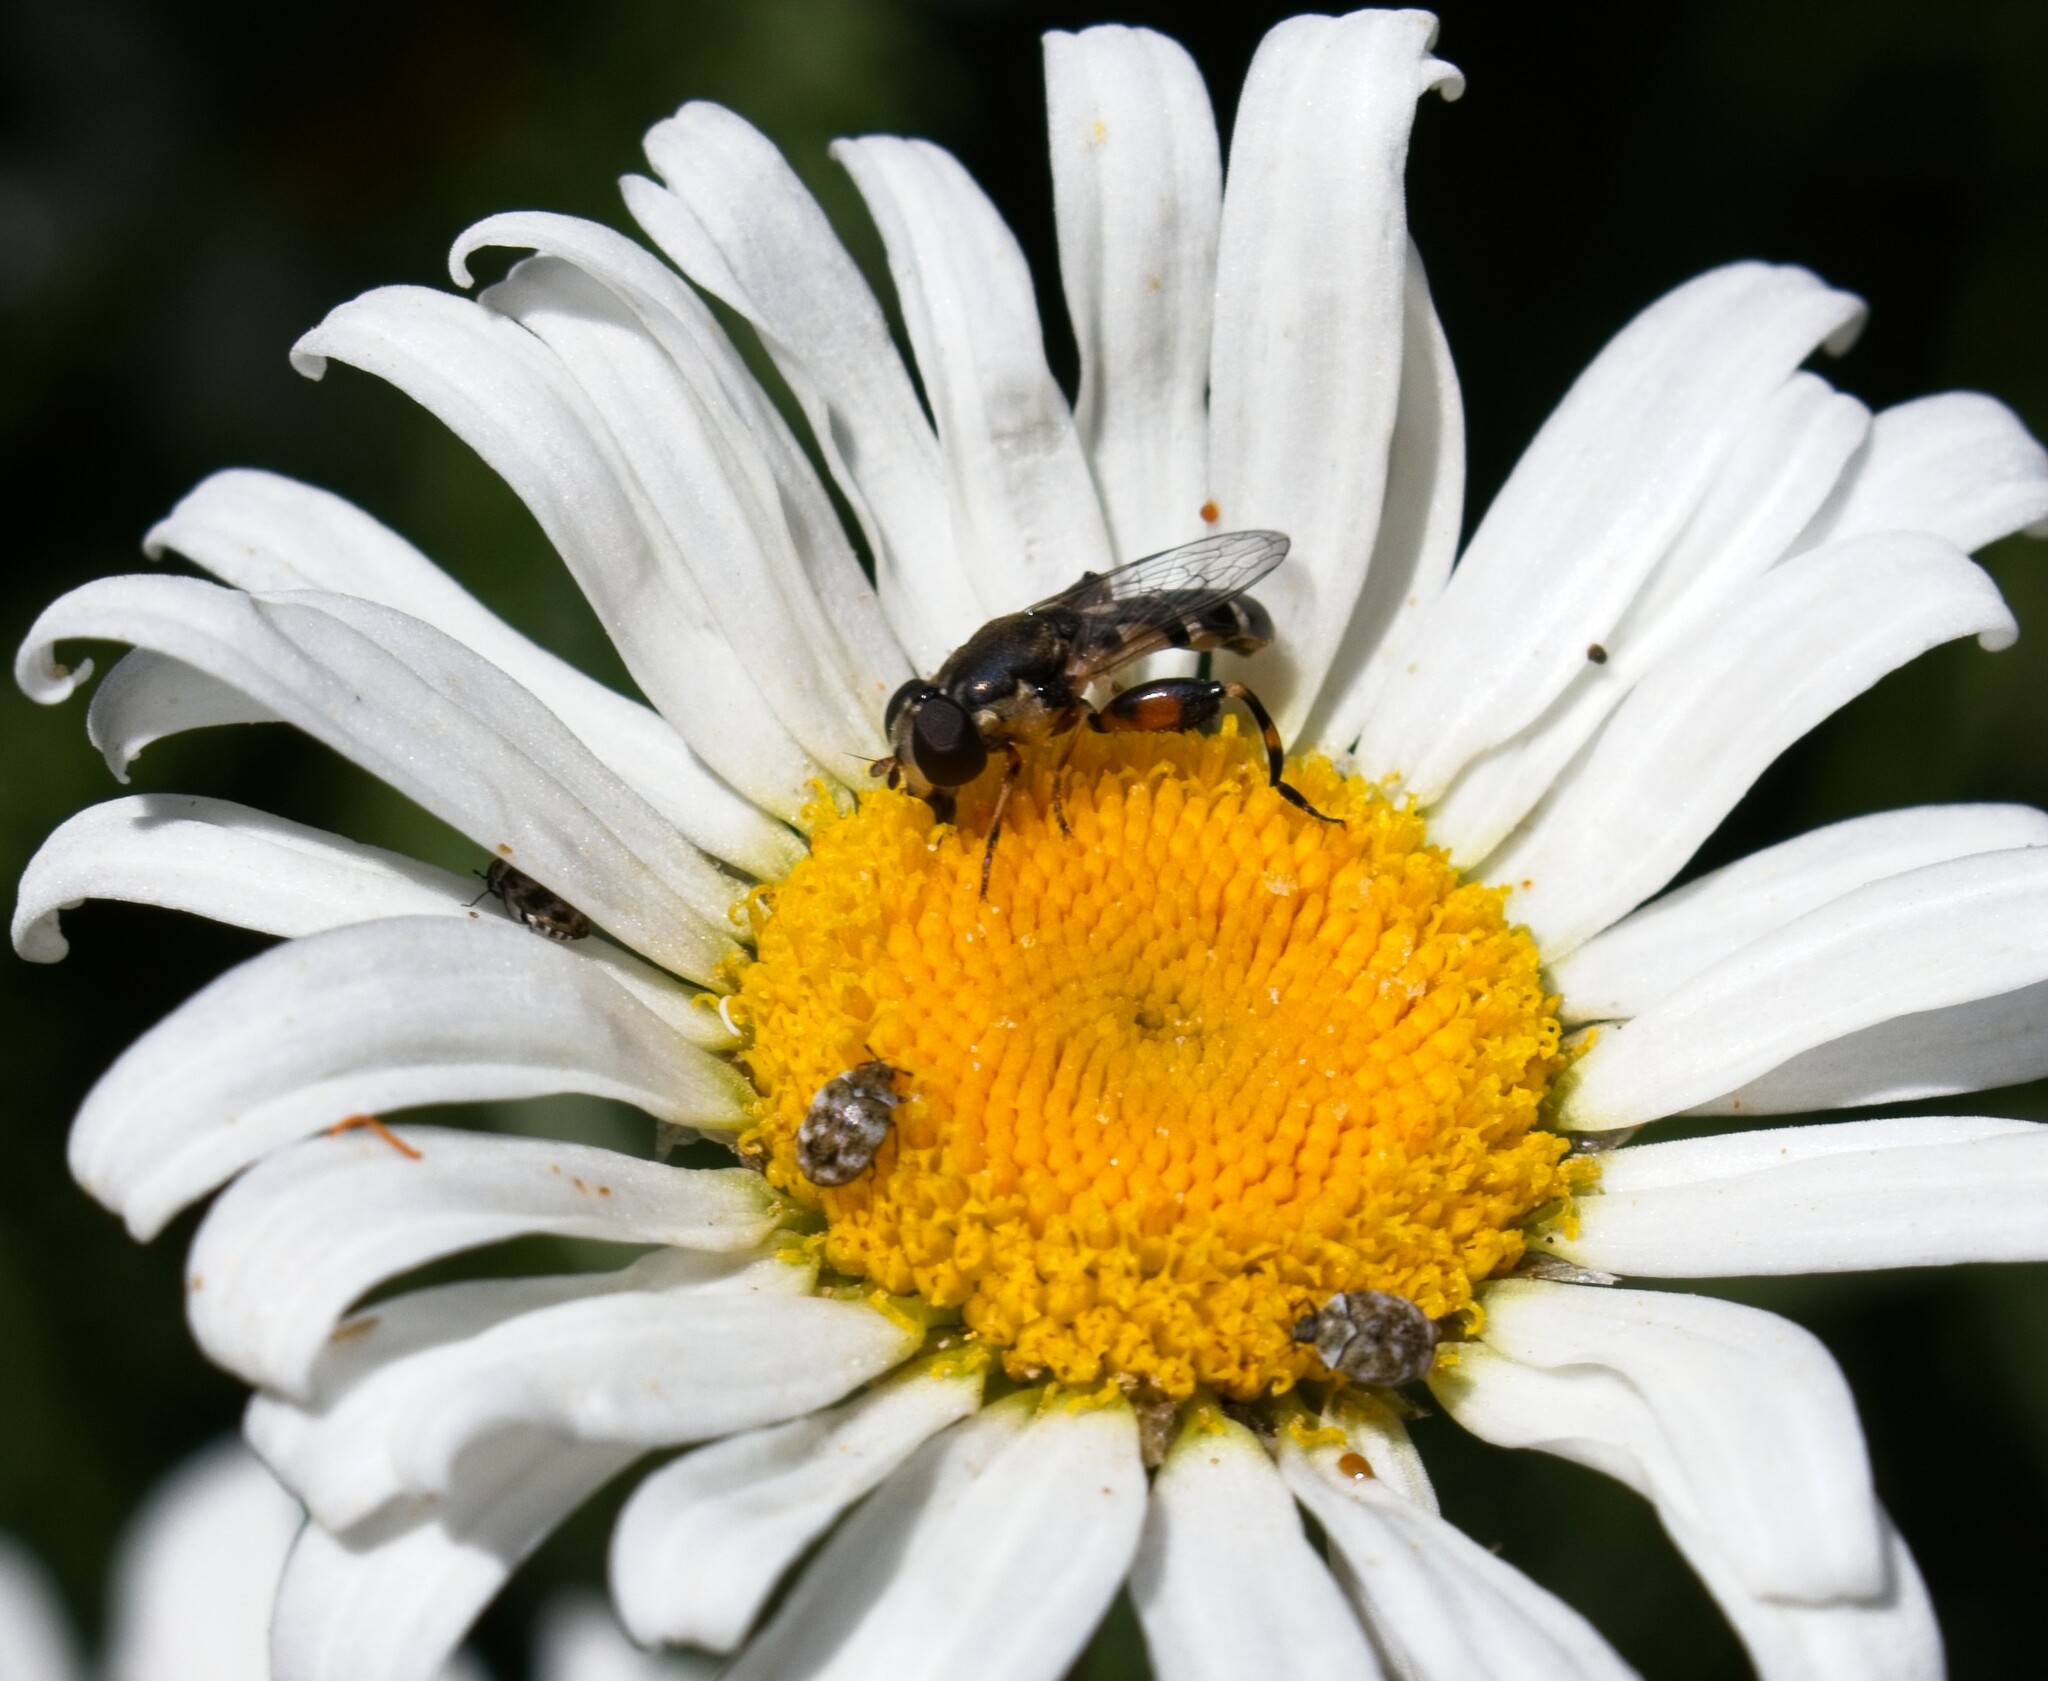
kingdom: Animalia
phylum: Arthropoda
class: Insecta
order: Diptera
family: Syrphidae
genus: Syritta
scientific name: Syritta pipiens
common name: Hover fly
